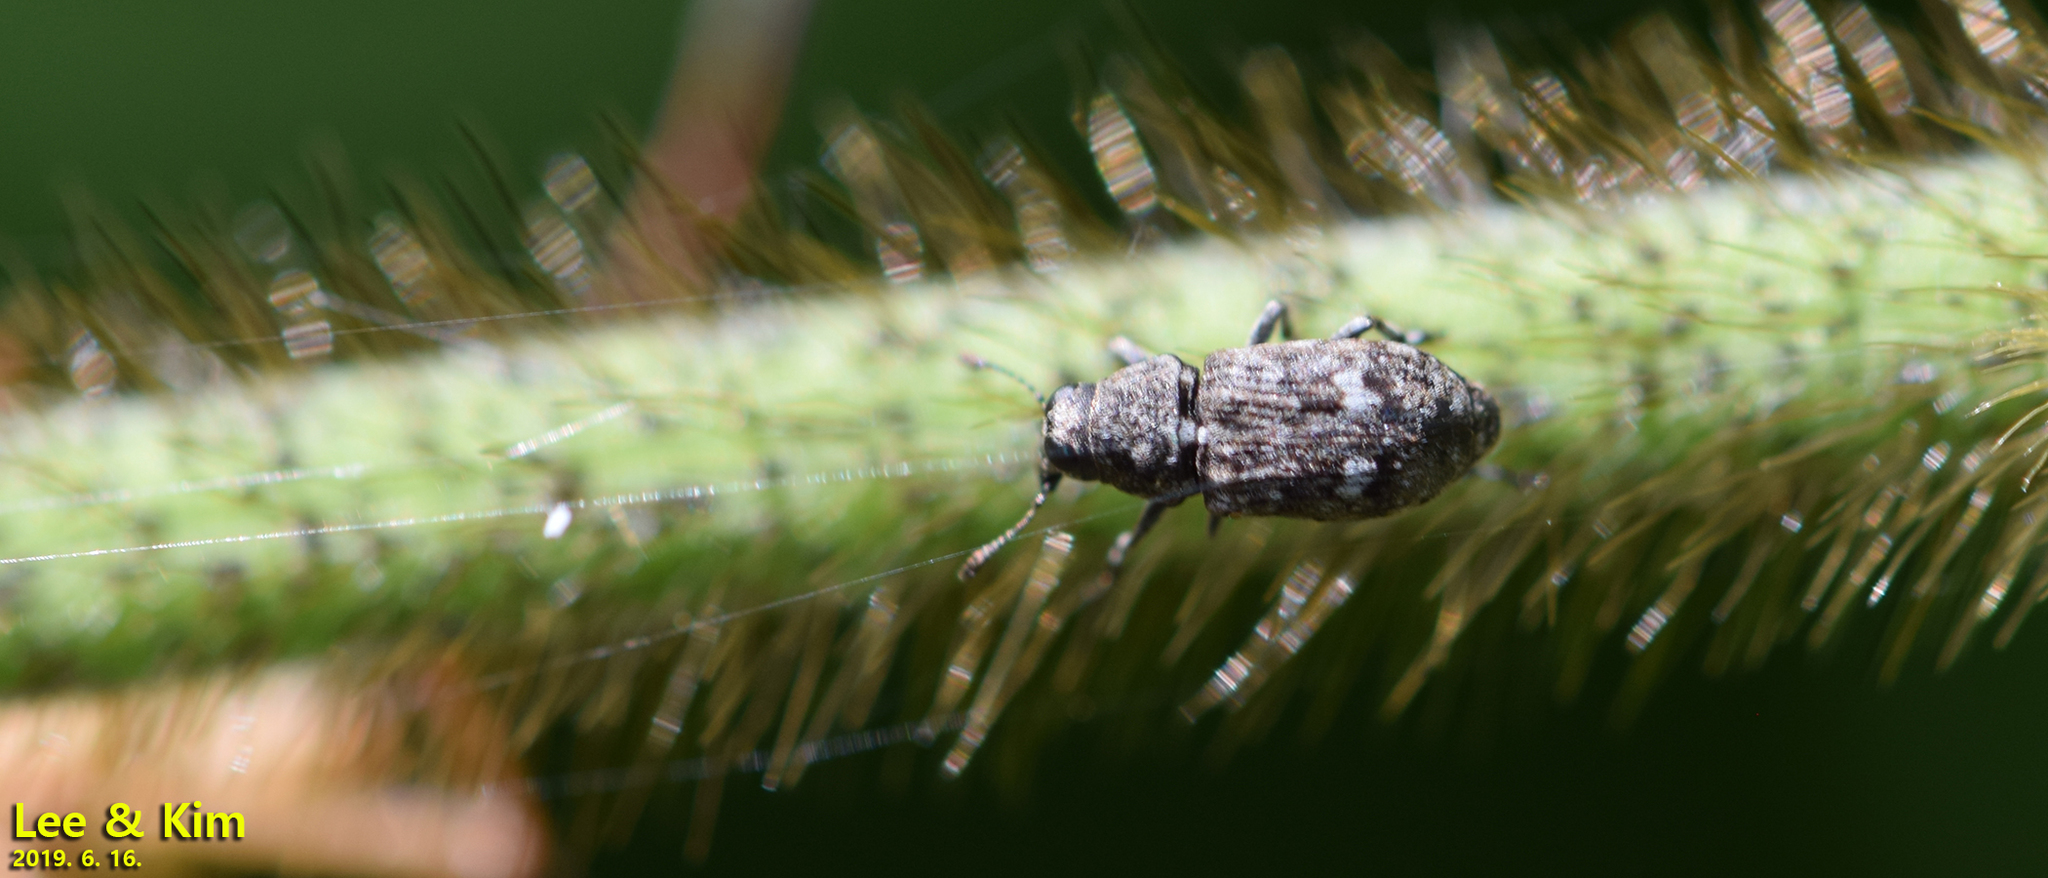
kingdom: Animalia
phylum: Arthropoda
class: Insecta
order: Coleoptera
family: Anthribidae
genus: Tropideres
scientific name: Tropideres cyaneotergum
